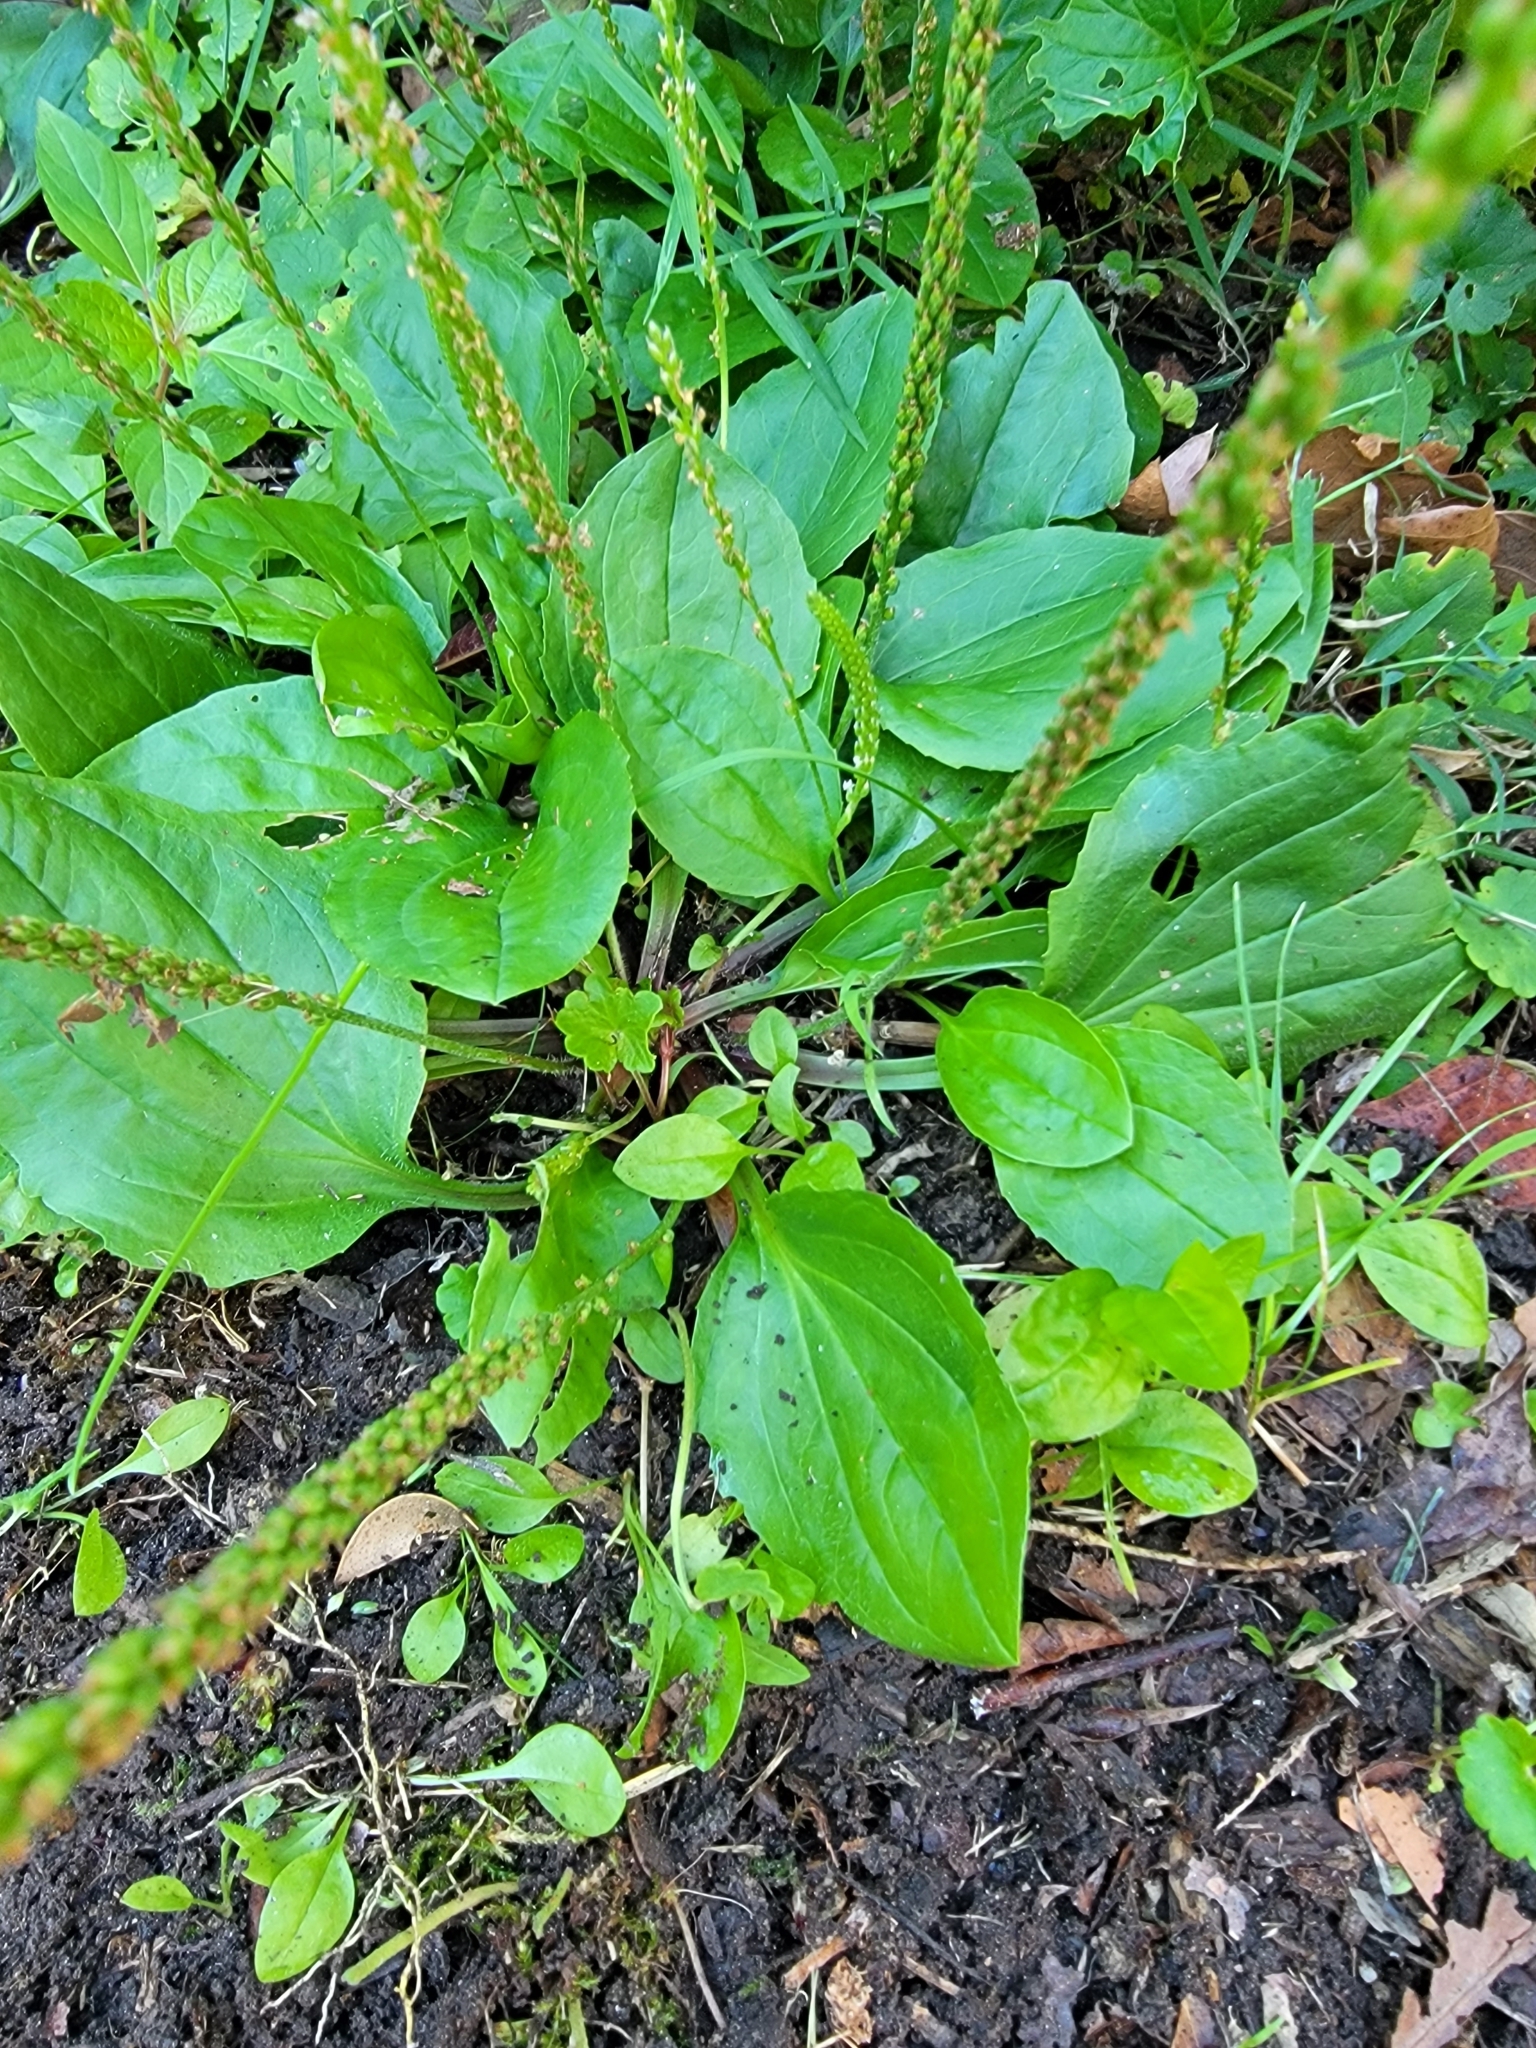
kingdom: Plantae
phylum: Tracheophyta
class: Magnoliopsida
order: Lamiales
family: Plantaginaceae
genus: Plantago
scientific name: Plantago rugelii
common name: American plantain
